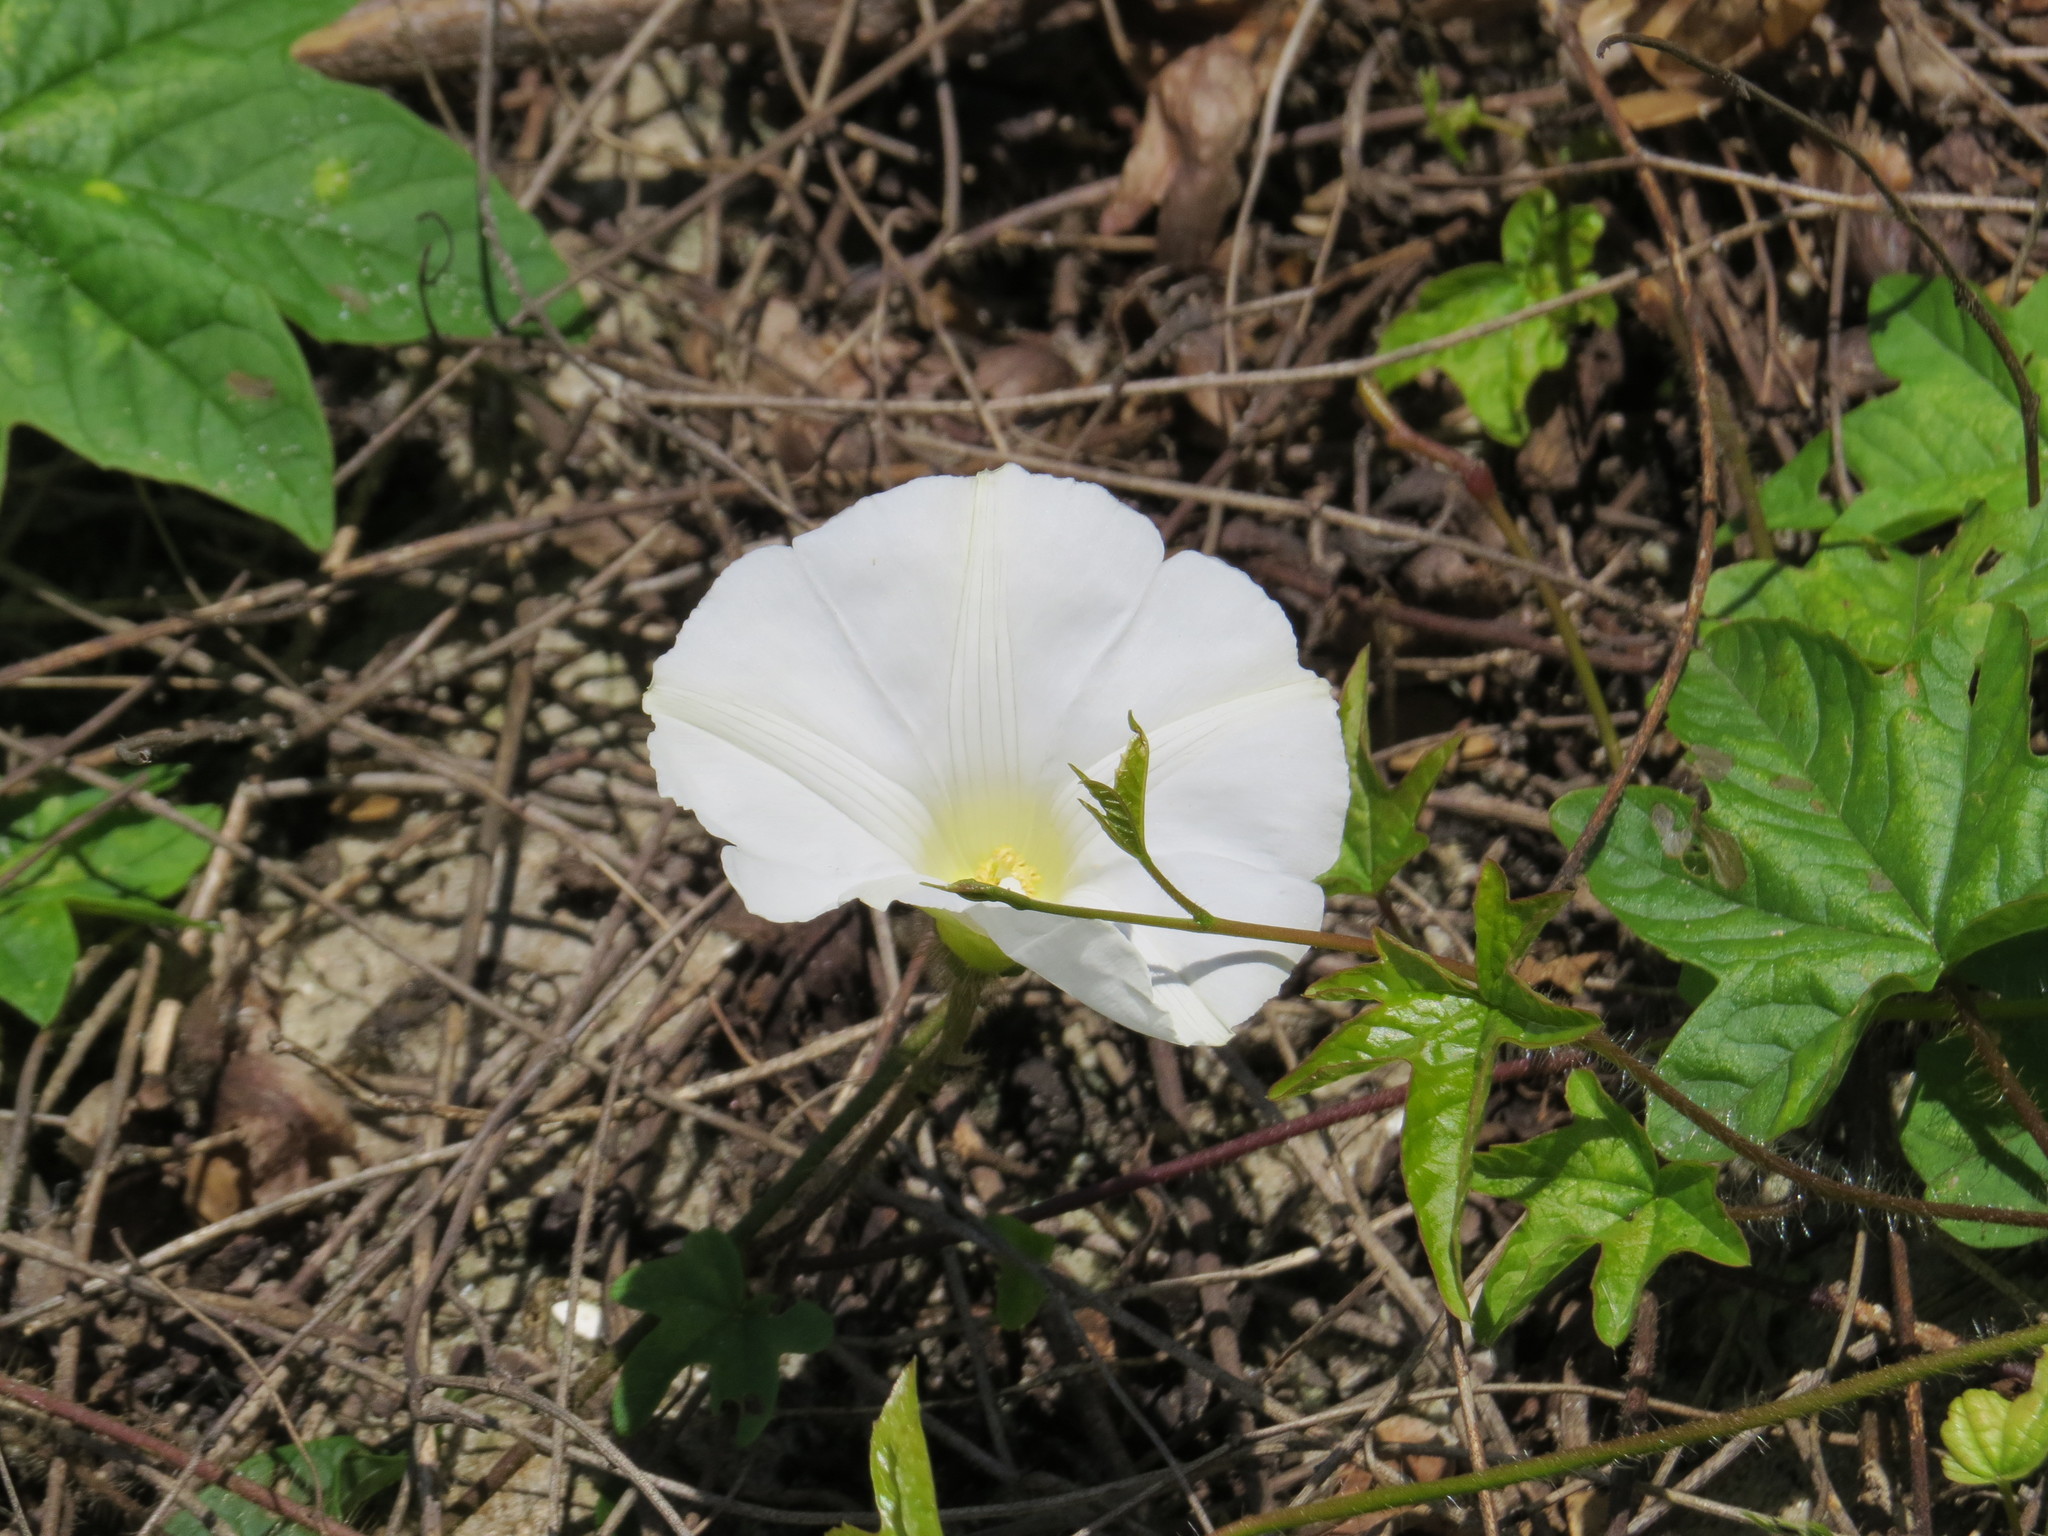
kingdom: Plantae
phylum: Tracheophyta
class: Magnoliopsida
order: Solanales
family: Convolvulaceae
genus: Distimake
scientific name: Distimake aegyptius
